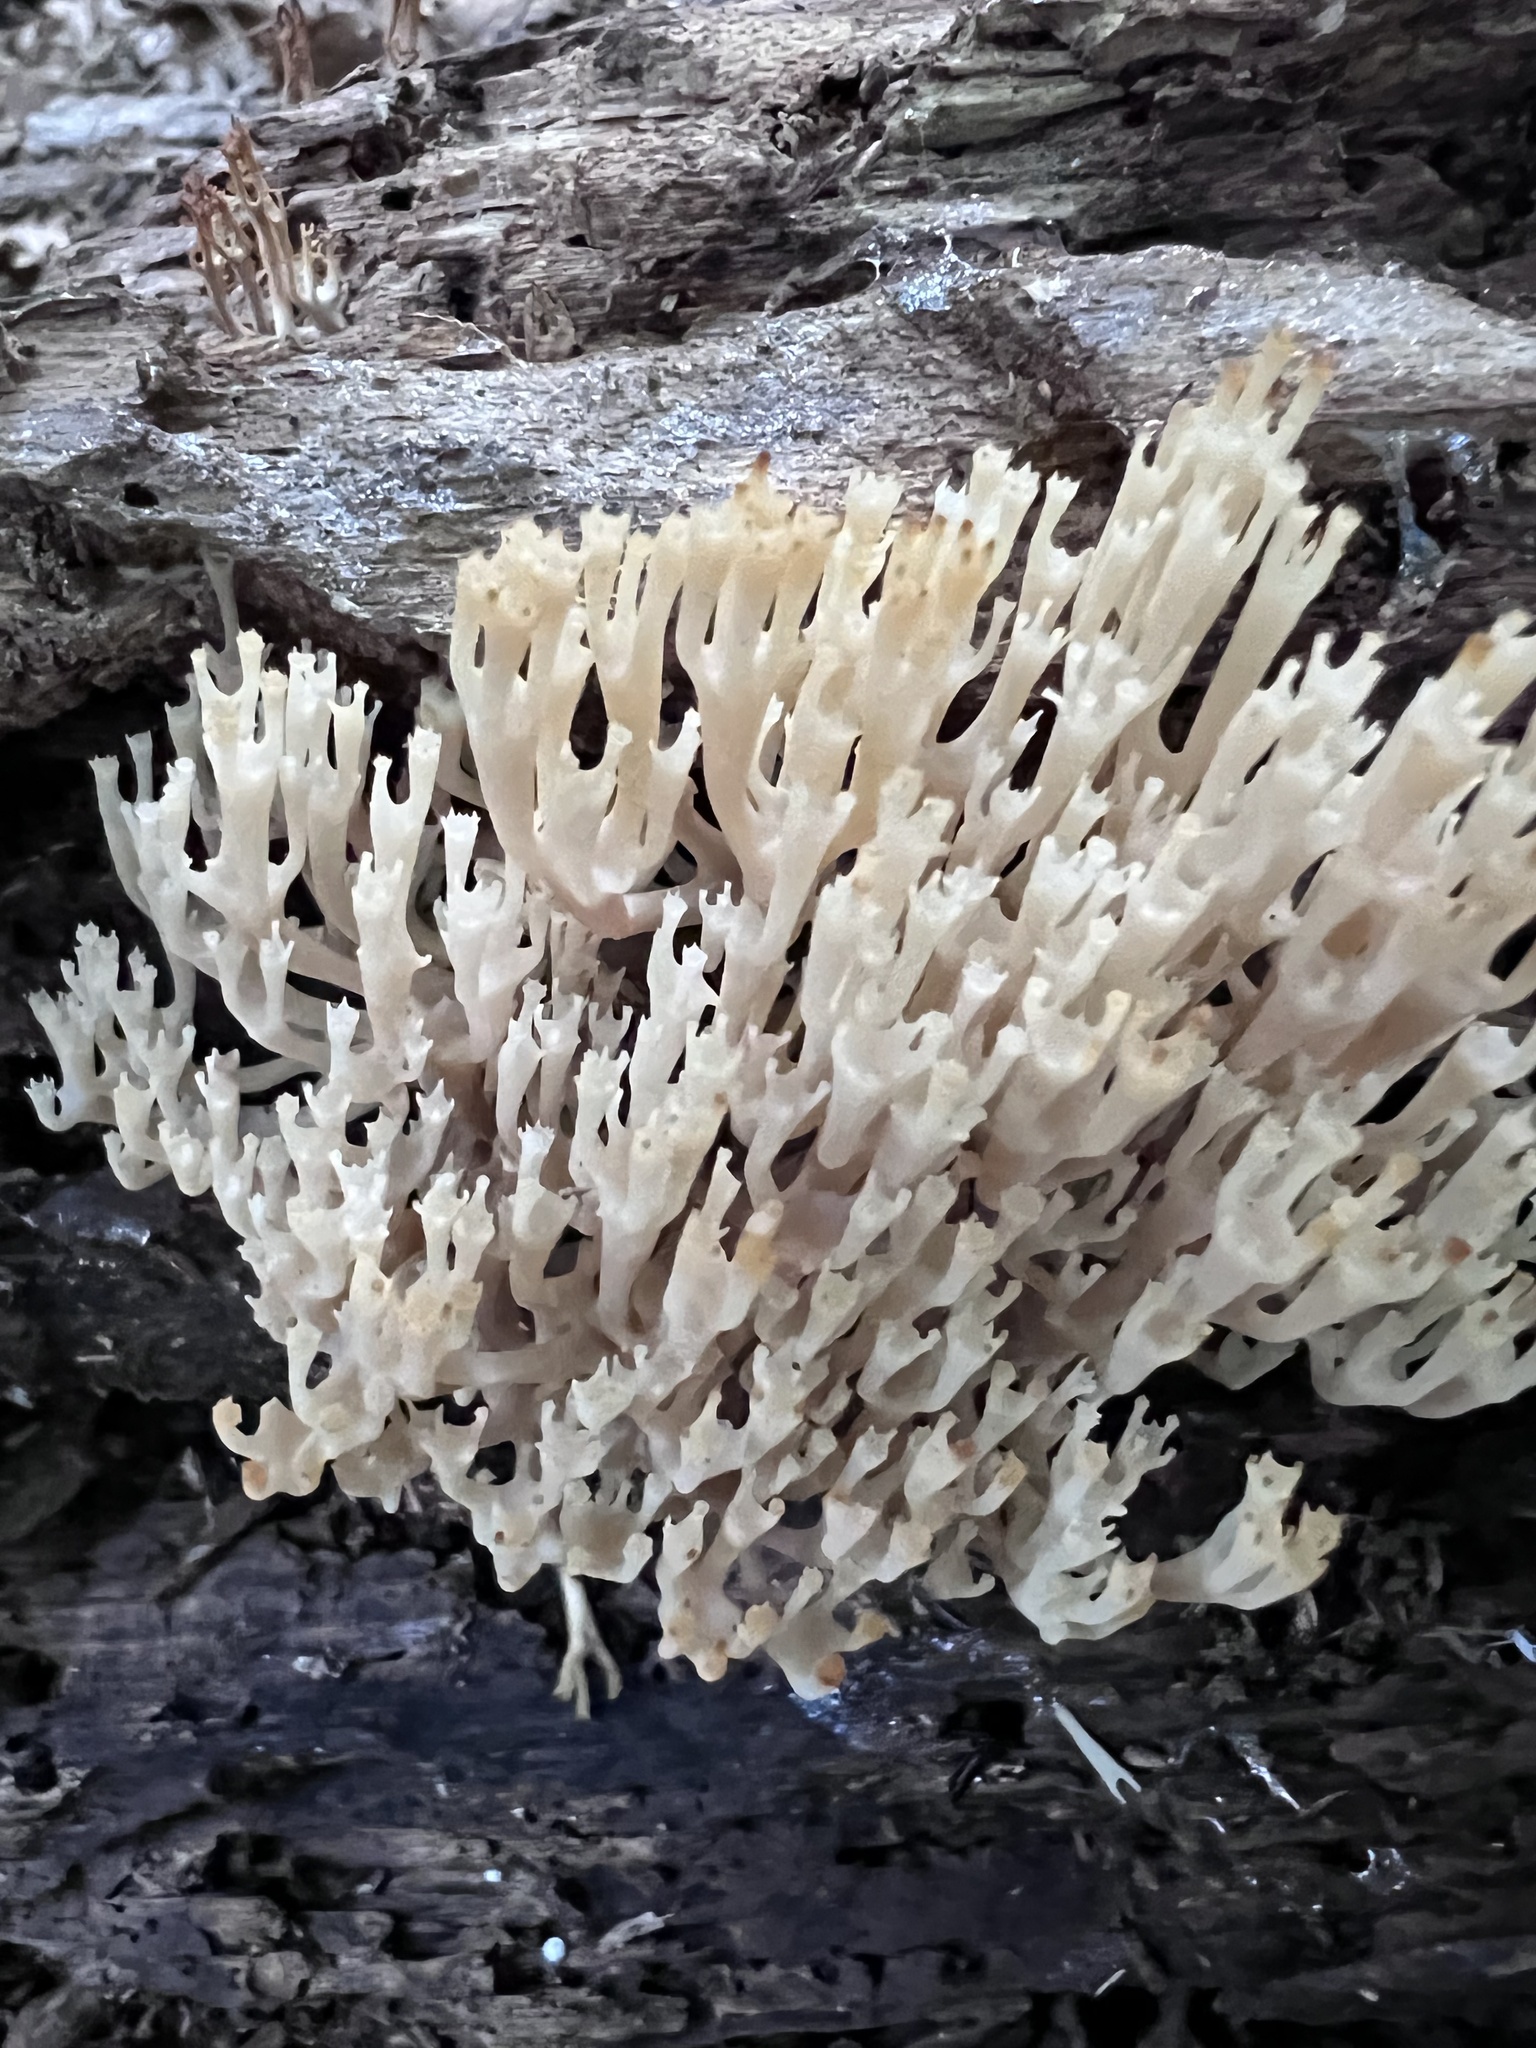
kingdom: Fungi
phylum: Basidiomycota
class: Agaricomycetes
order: Russulales
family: Auriscalpiaceae
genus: Artomyces
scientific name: Artomyces pyxidatus
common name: Crown-tipped coral fungus
